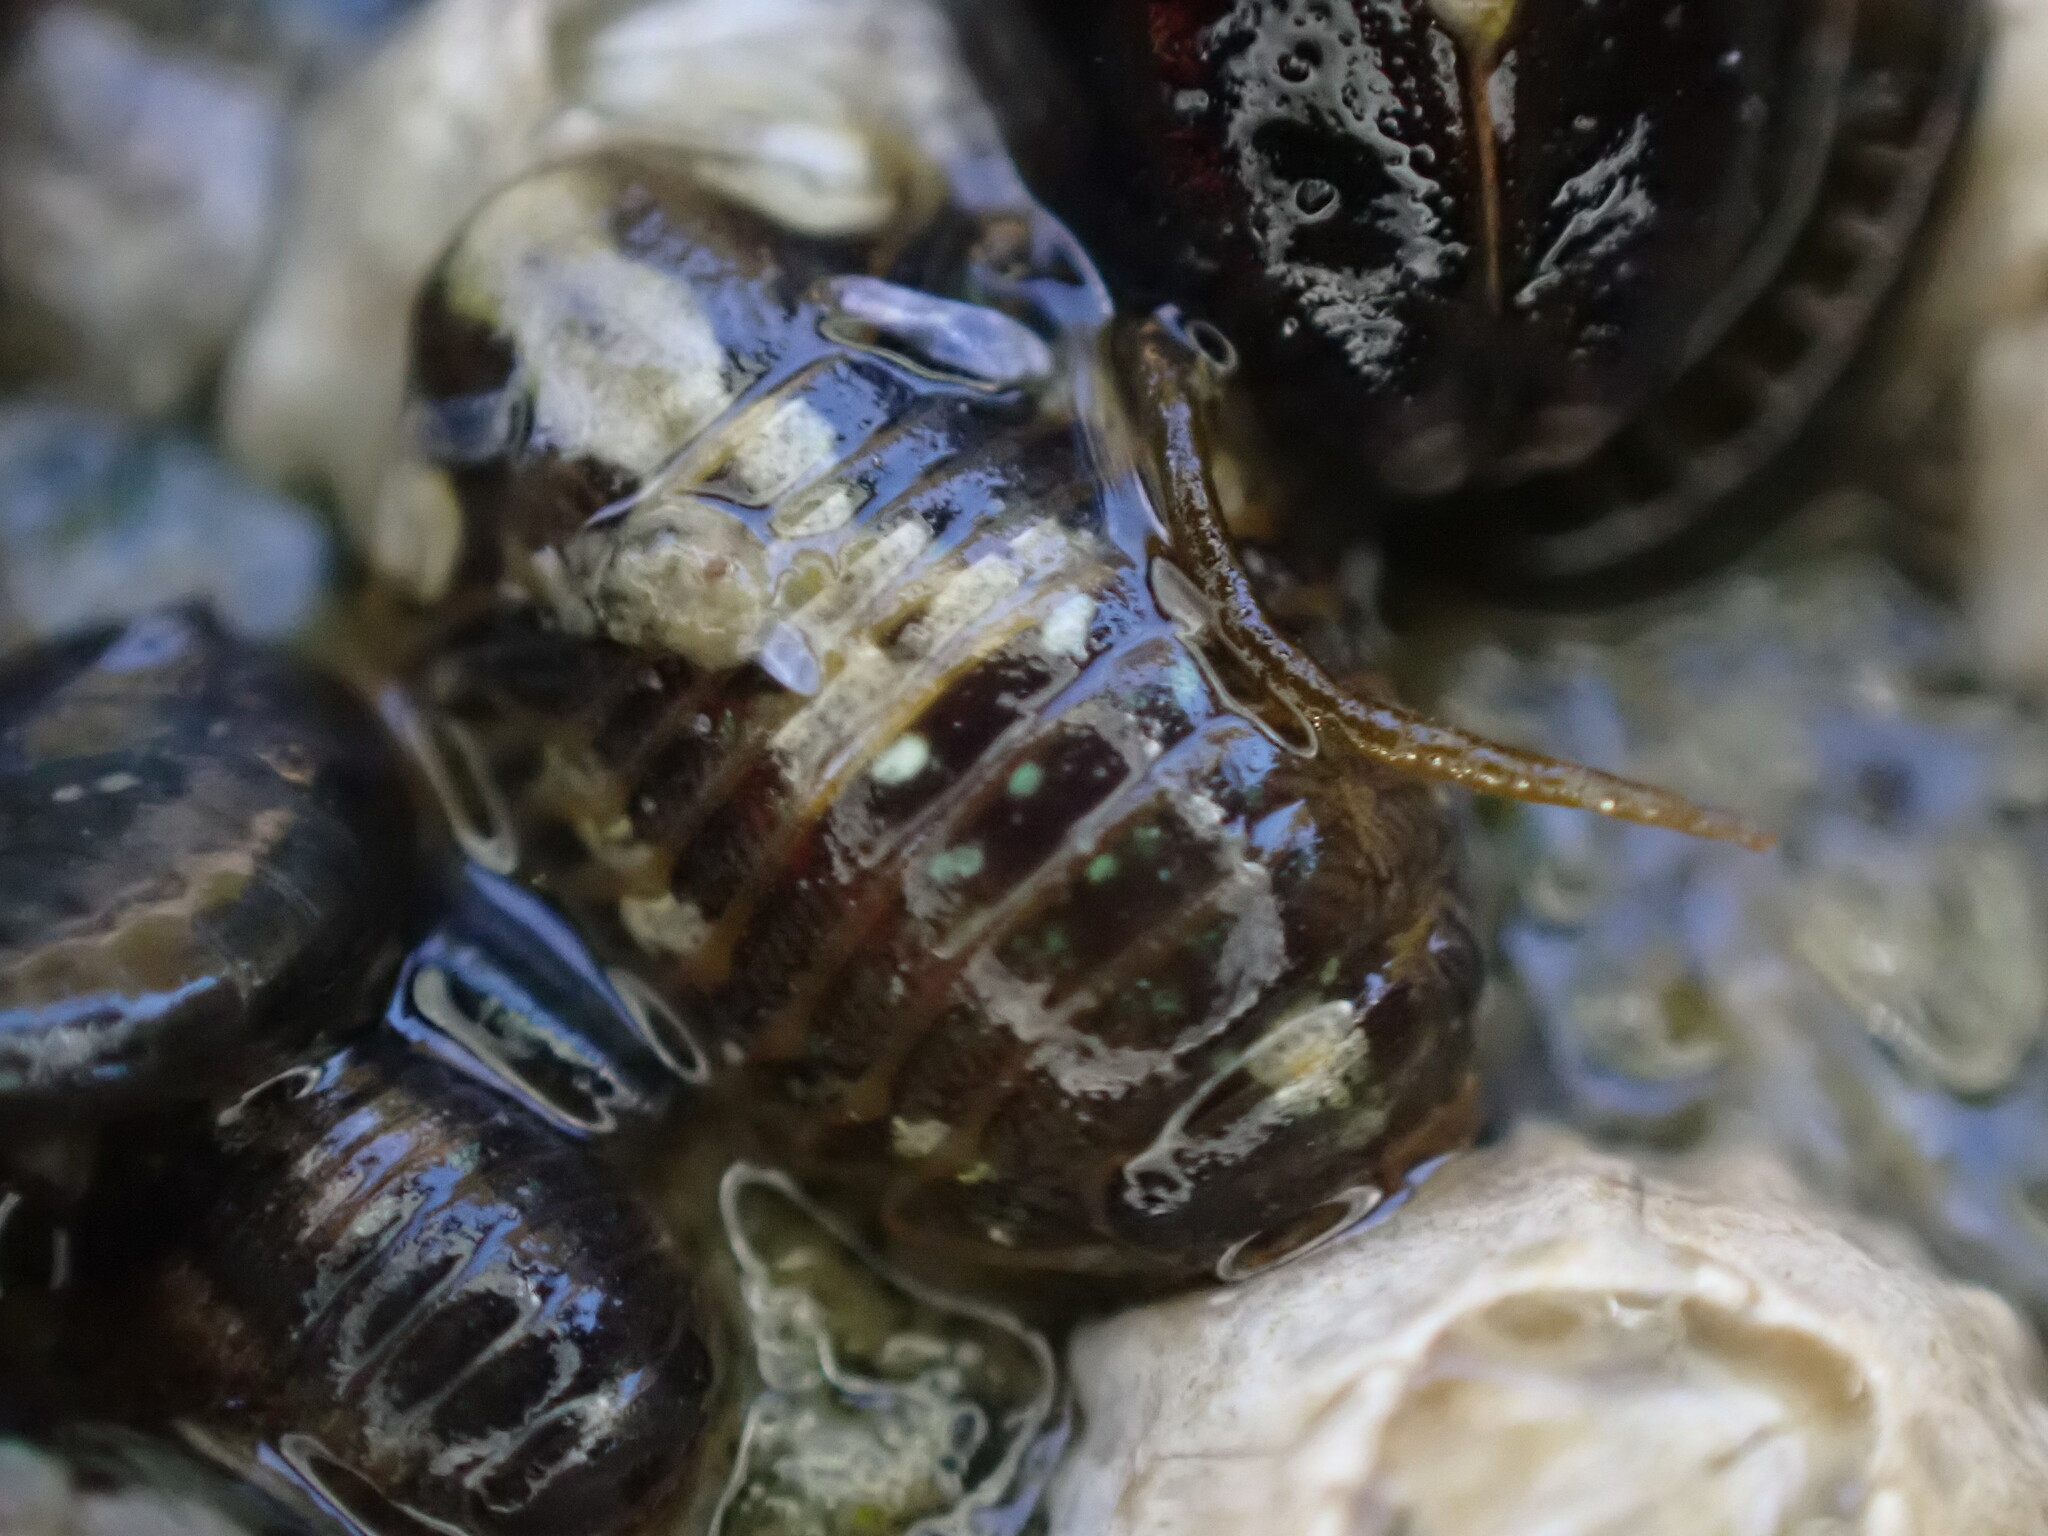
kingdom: Animalia
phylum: Arthropoda
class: Malacostraca
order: Isopoda
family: Sphaeromatidae
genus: Gnorimosphaeroma
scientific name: Gnorimosphaeroma oregonense
